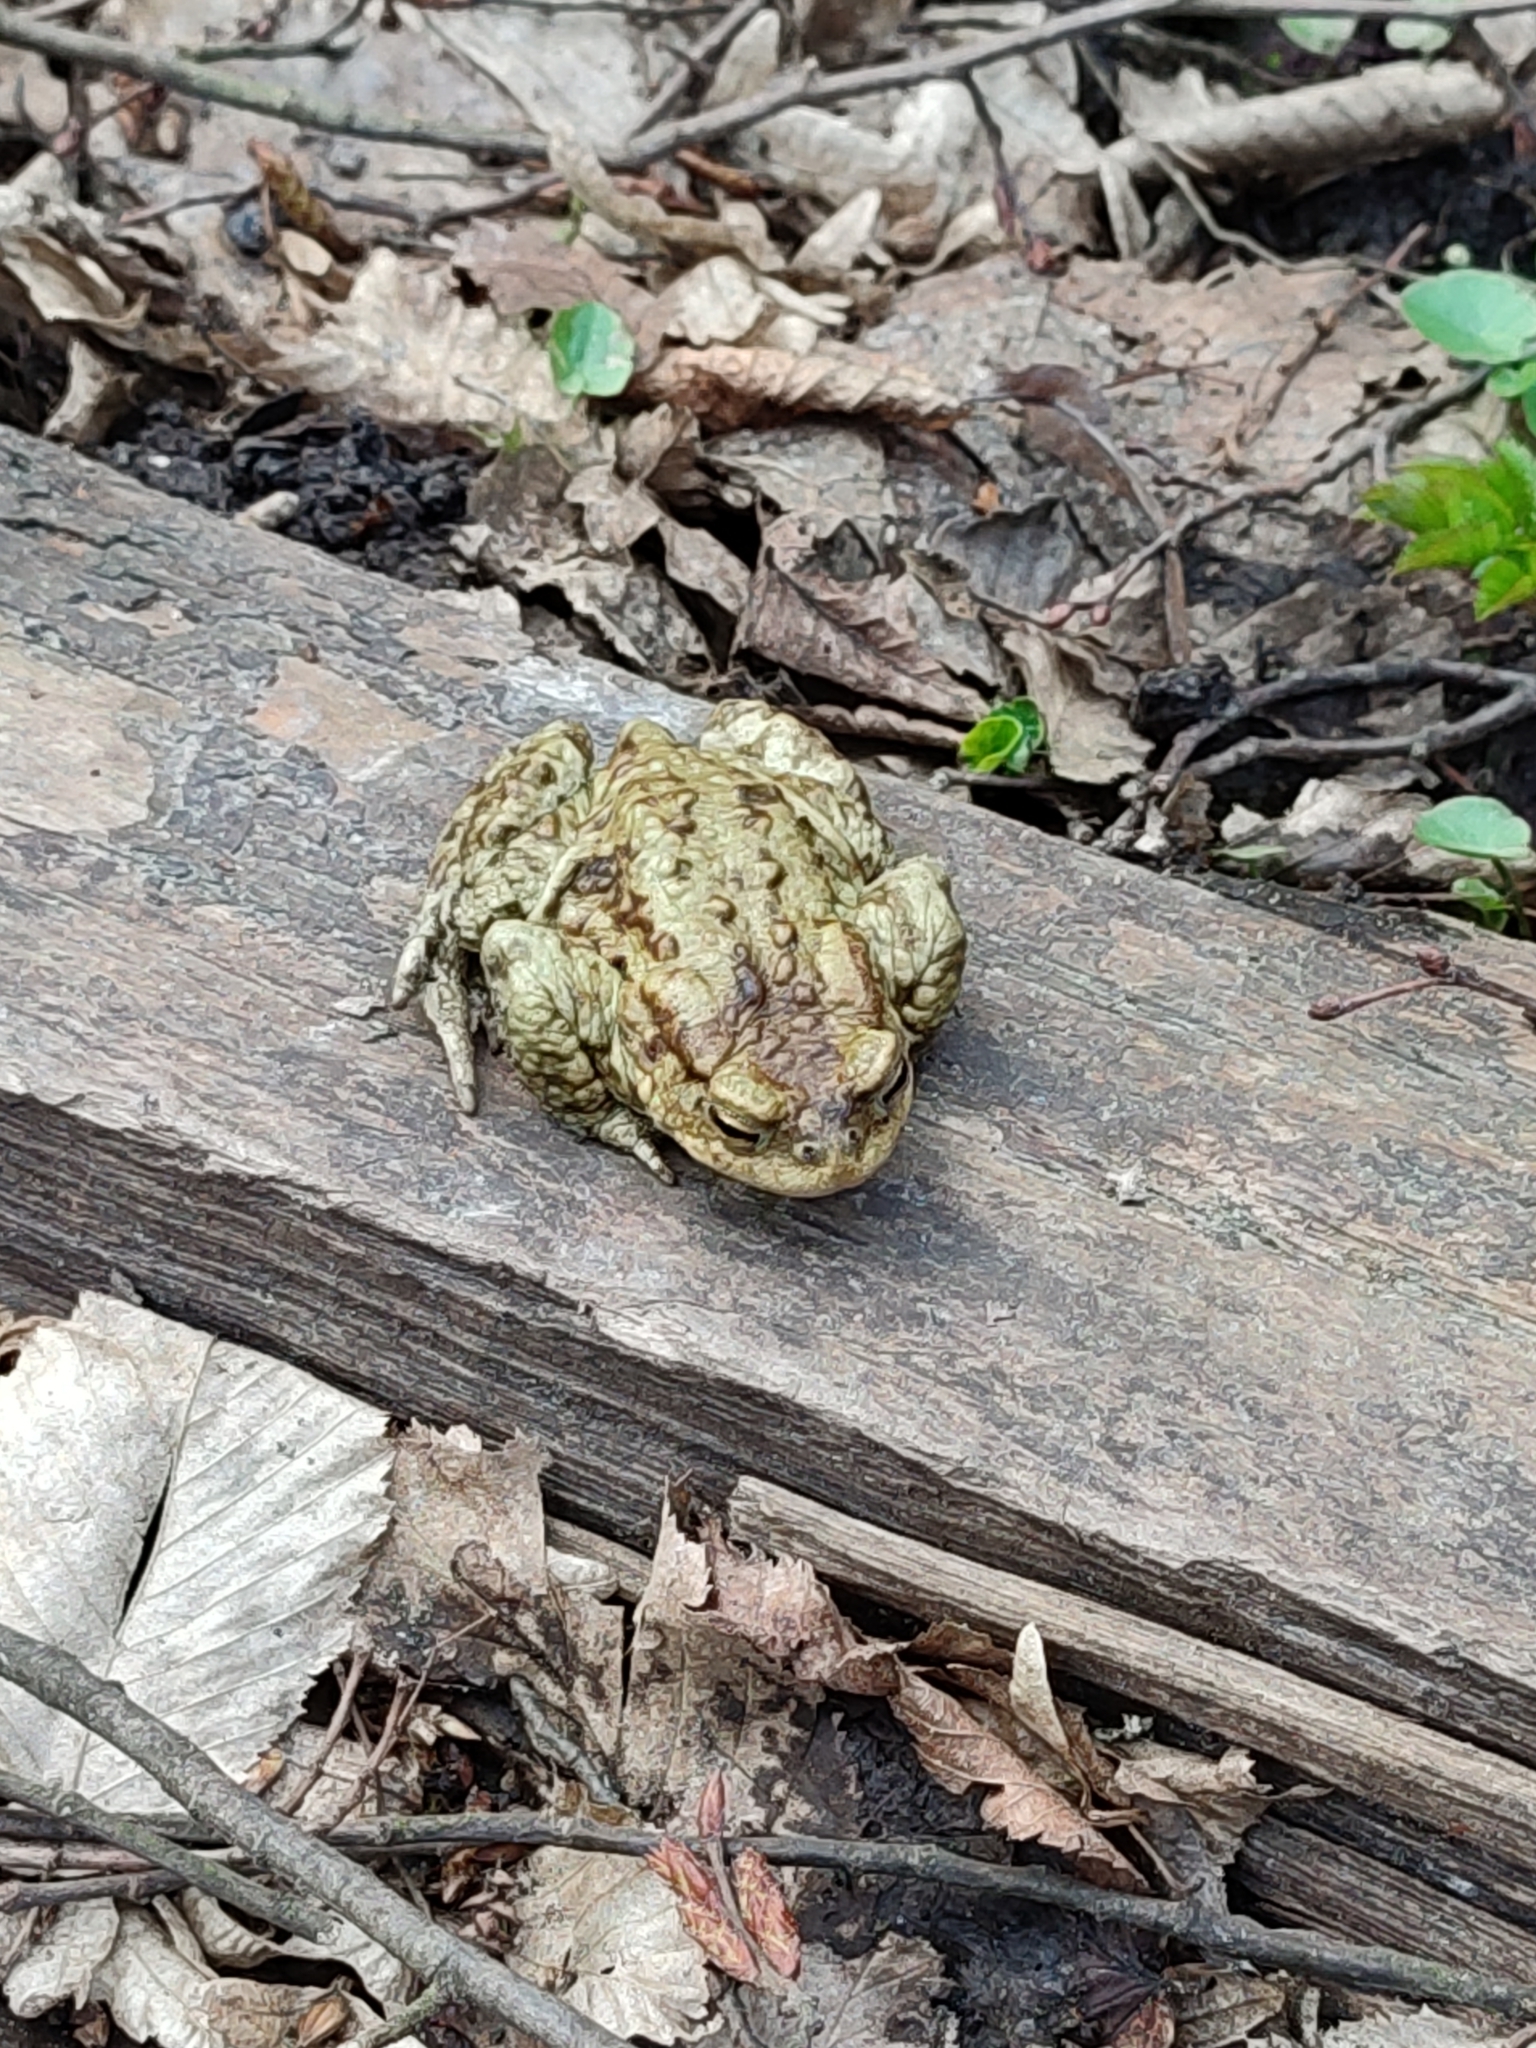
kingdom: Animalia
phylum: Chordata
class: Amphibia
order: Anura
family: Bufonidae
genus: Bufo
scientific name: Bufo bufo
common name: Common toad
